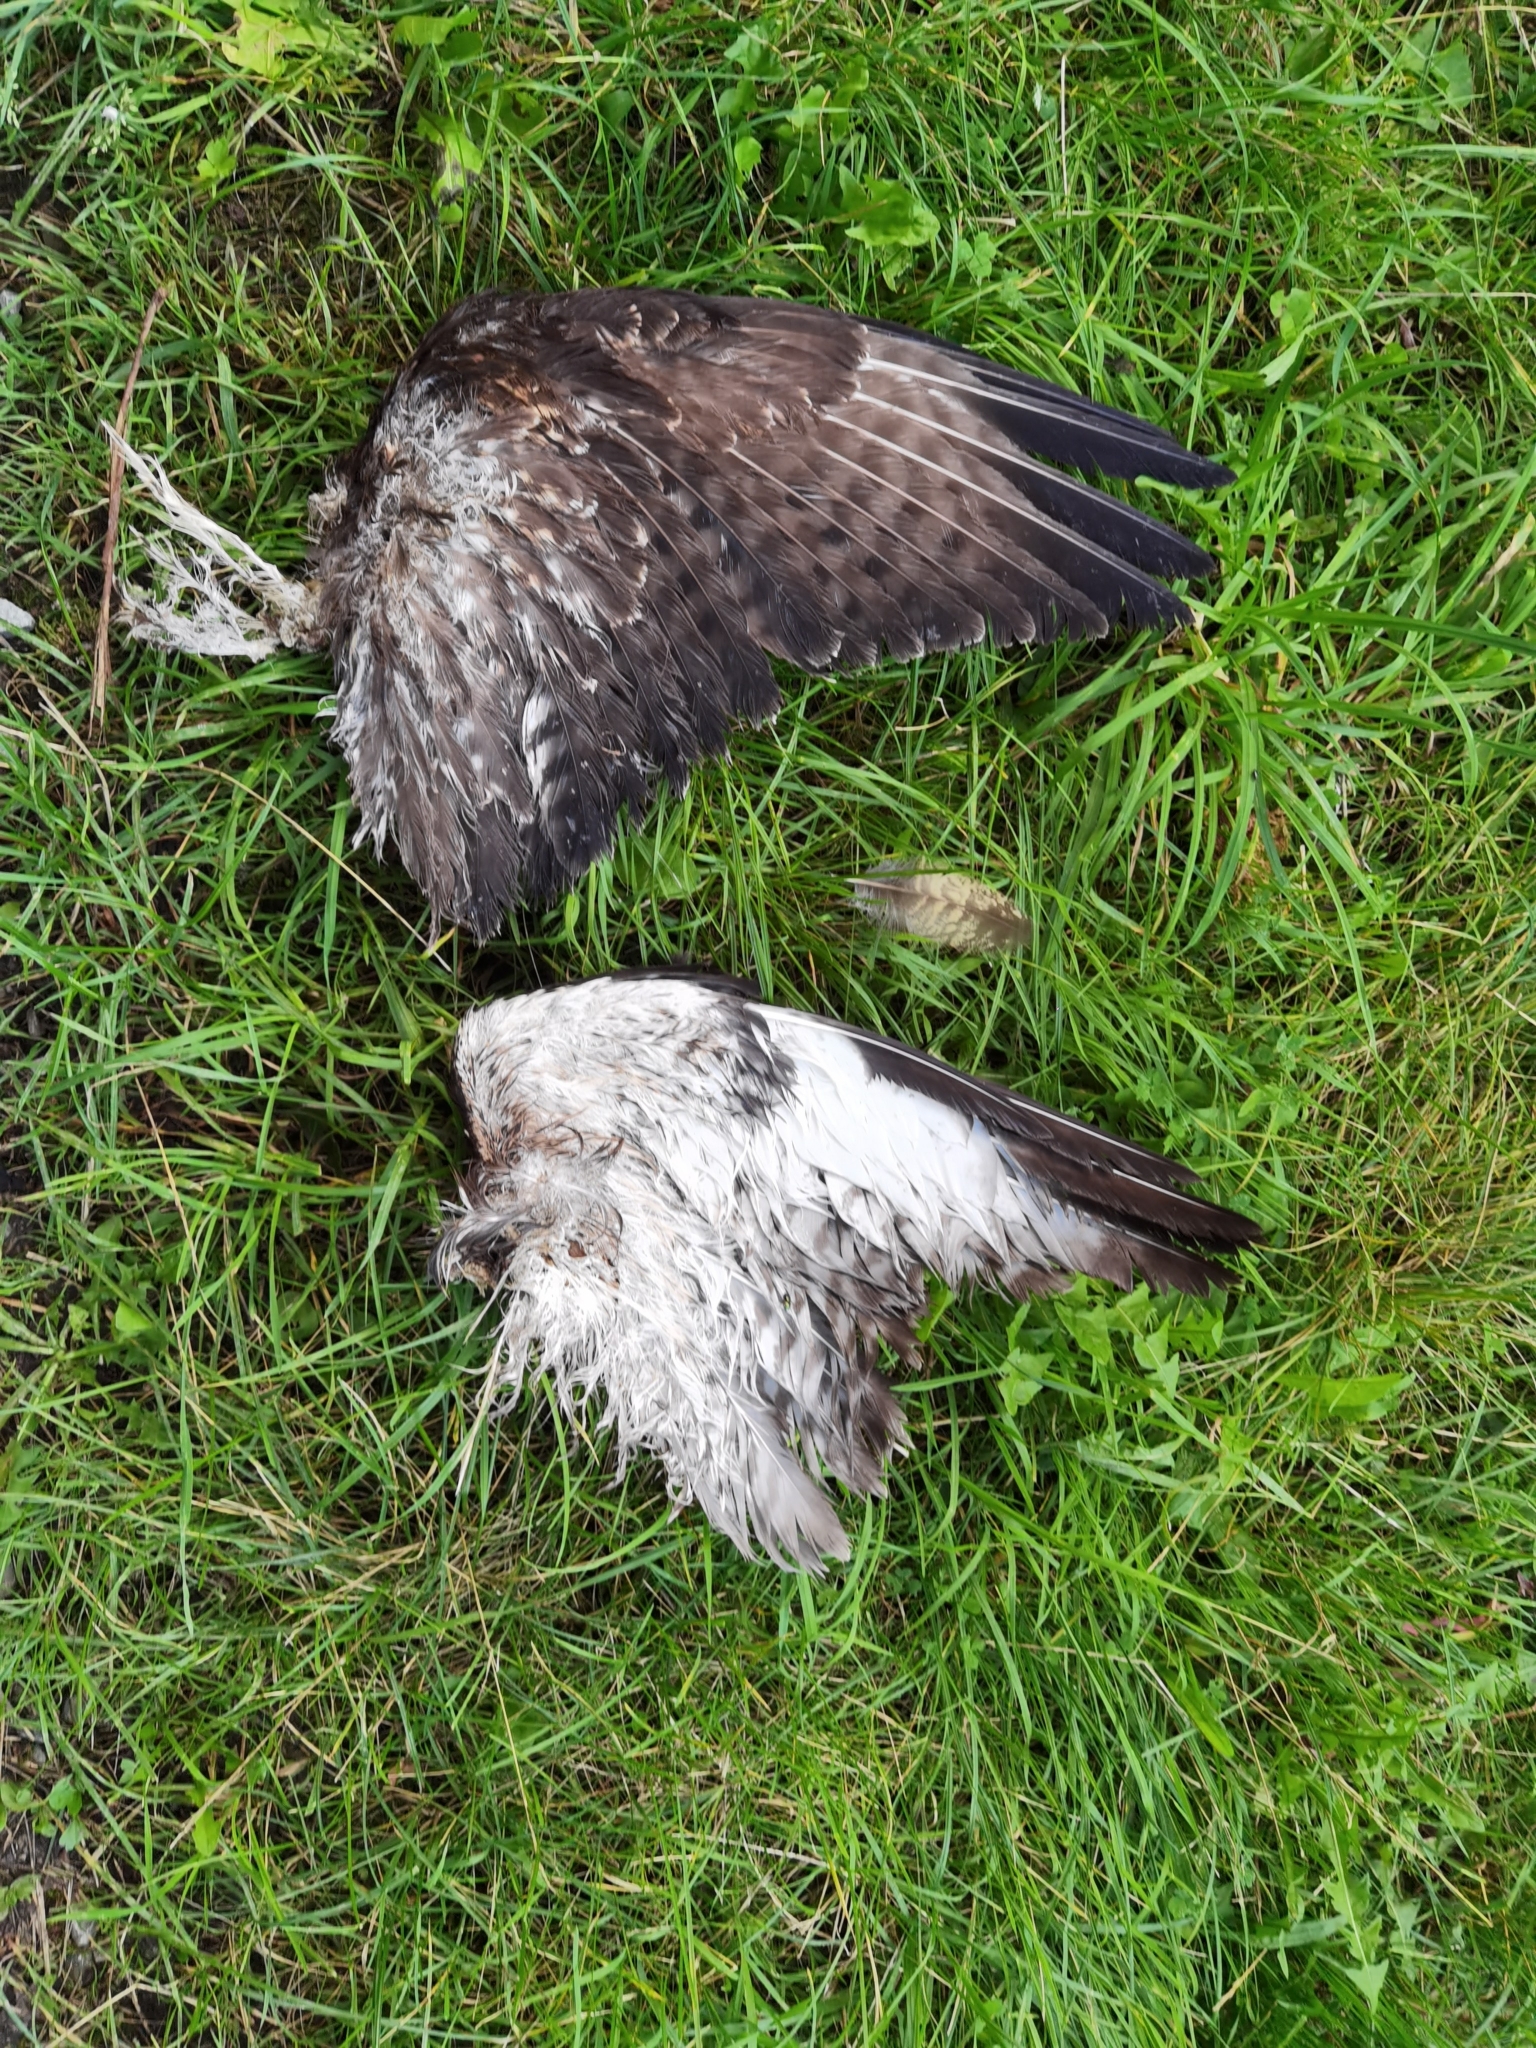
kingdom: Animalia
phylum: Chordata
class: Aves
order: Accipitriformes
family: Accipitridae
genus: Buteo
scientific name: Buteo buteo
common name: Common buzzard
